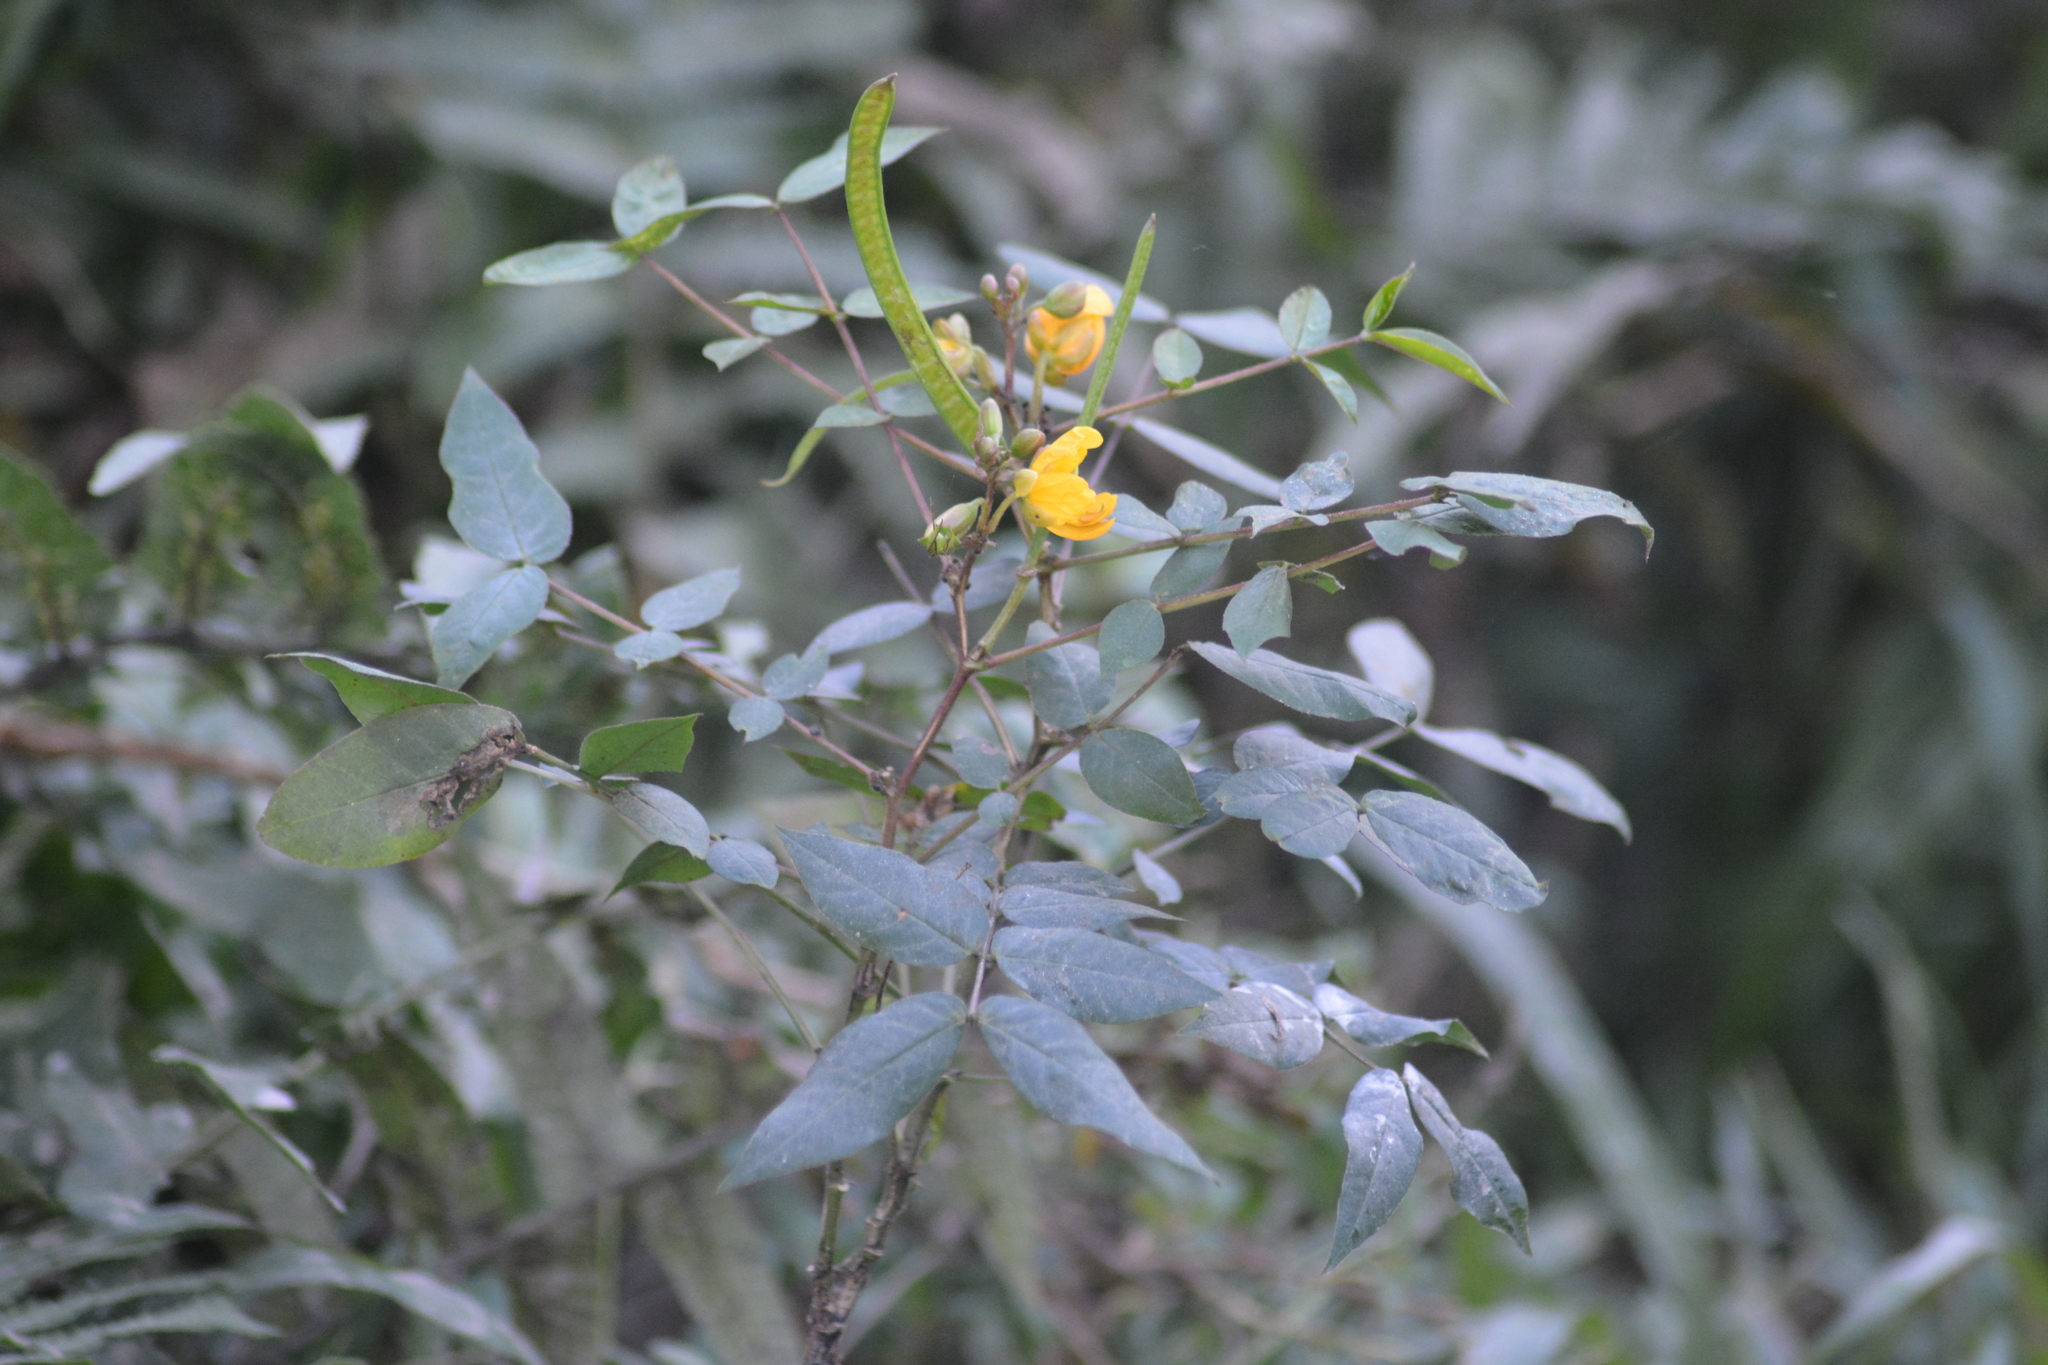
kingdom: Plantae
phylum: Tracheophyta
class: Magnoliopsida
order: Fabales
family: Fabaceae
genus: Senna
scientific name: Senna occidentalis
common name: Septicweed
